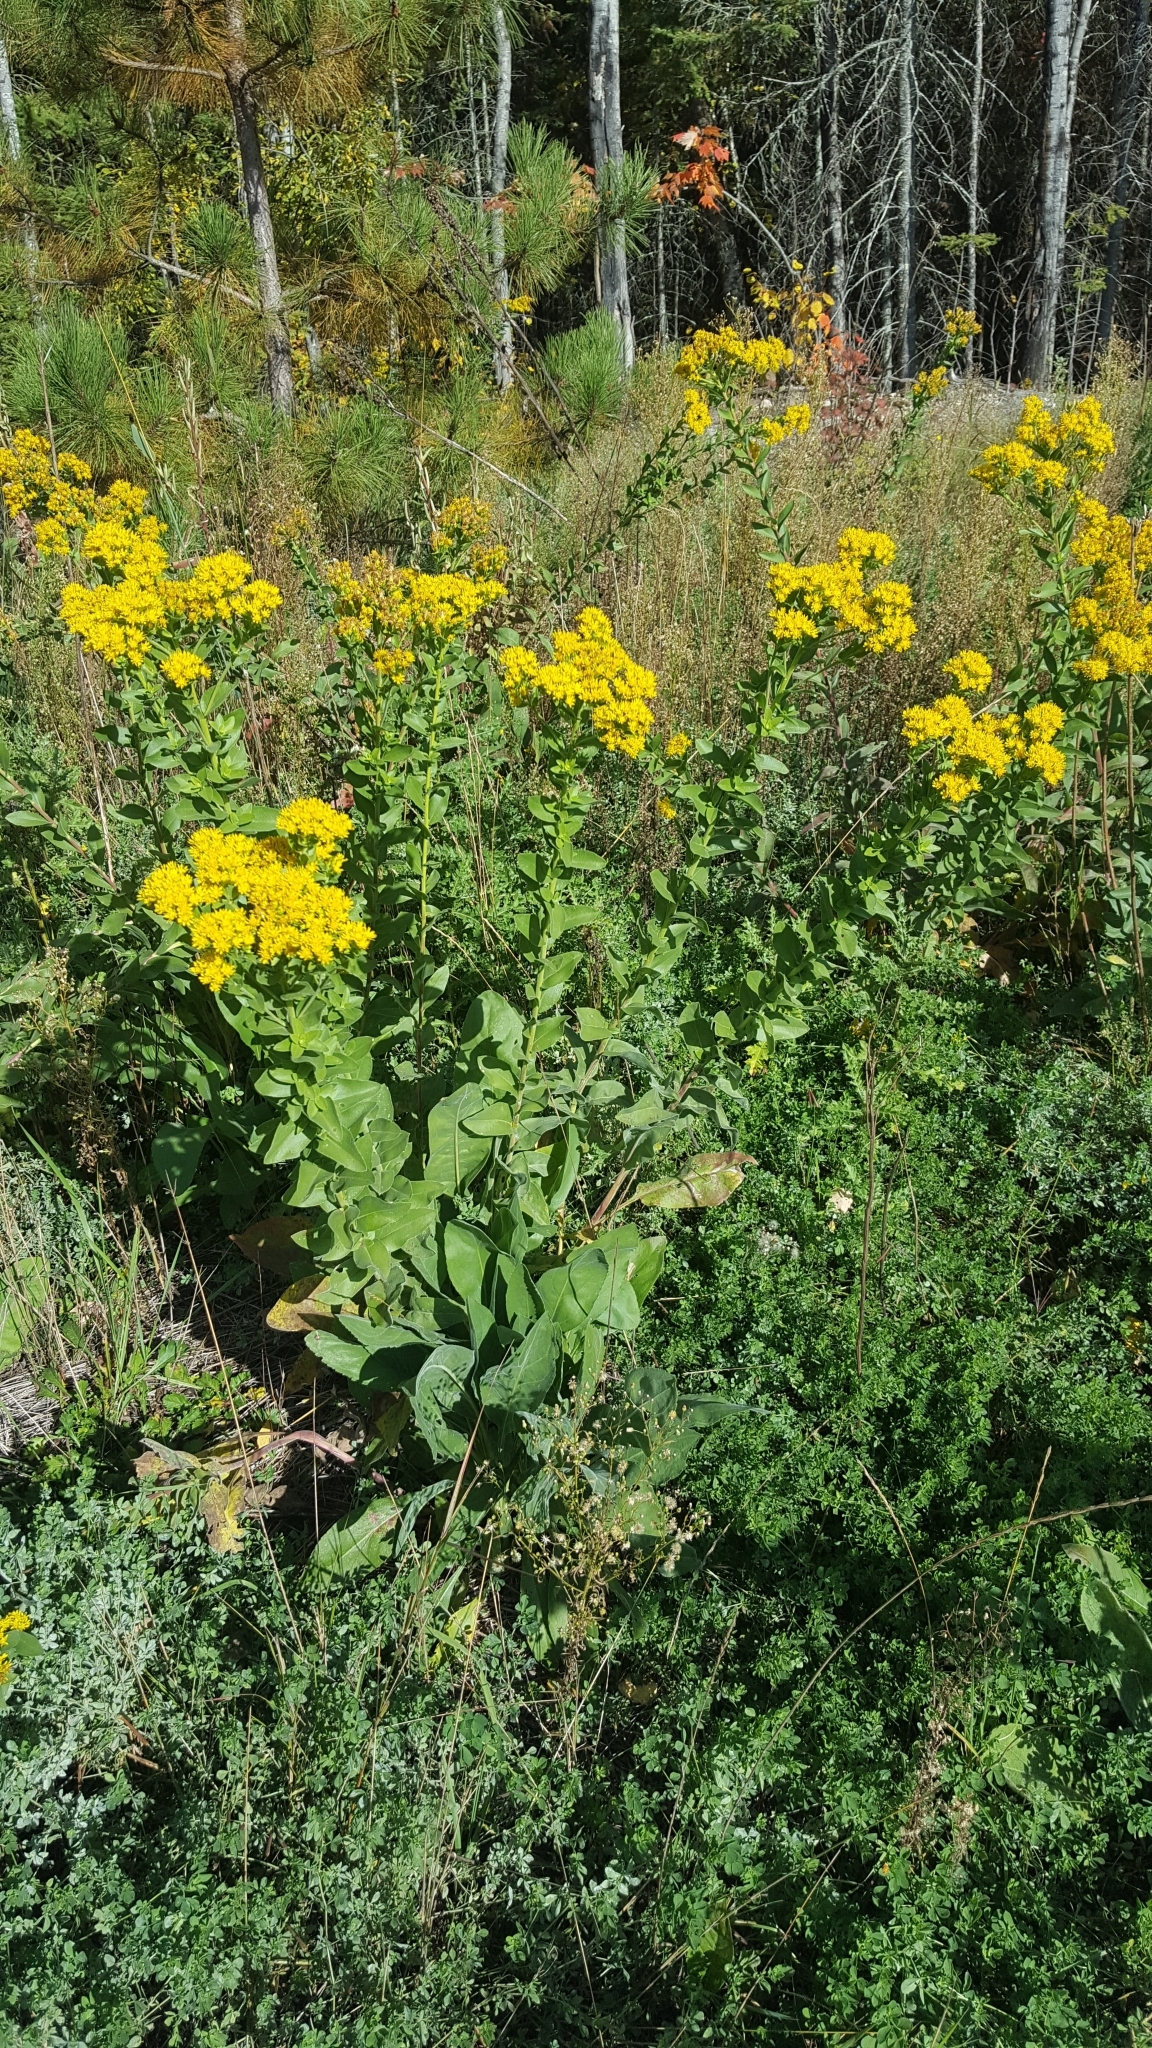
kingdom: Plantae
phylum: Tracheophyta
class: Magnoliopsida
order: Asterales
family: Asteraceae
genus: Solidago
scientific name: Solidago rigida
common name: Rigid goldenrod
